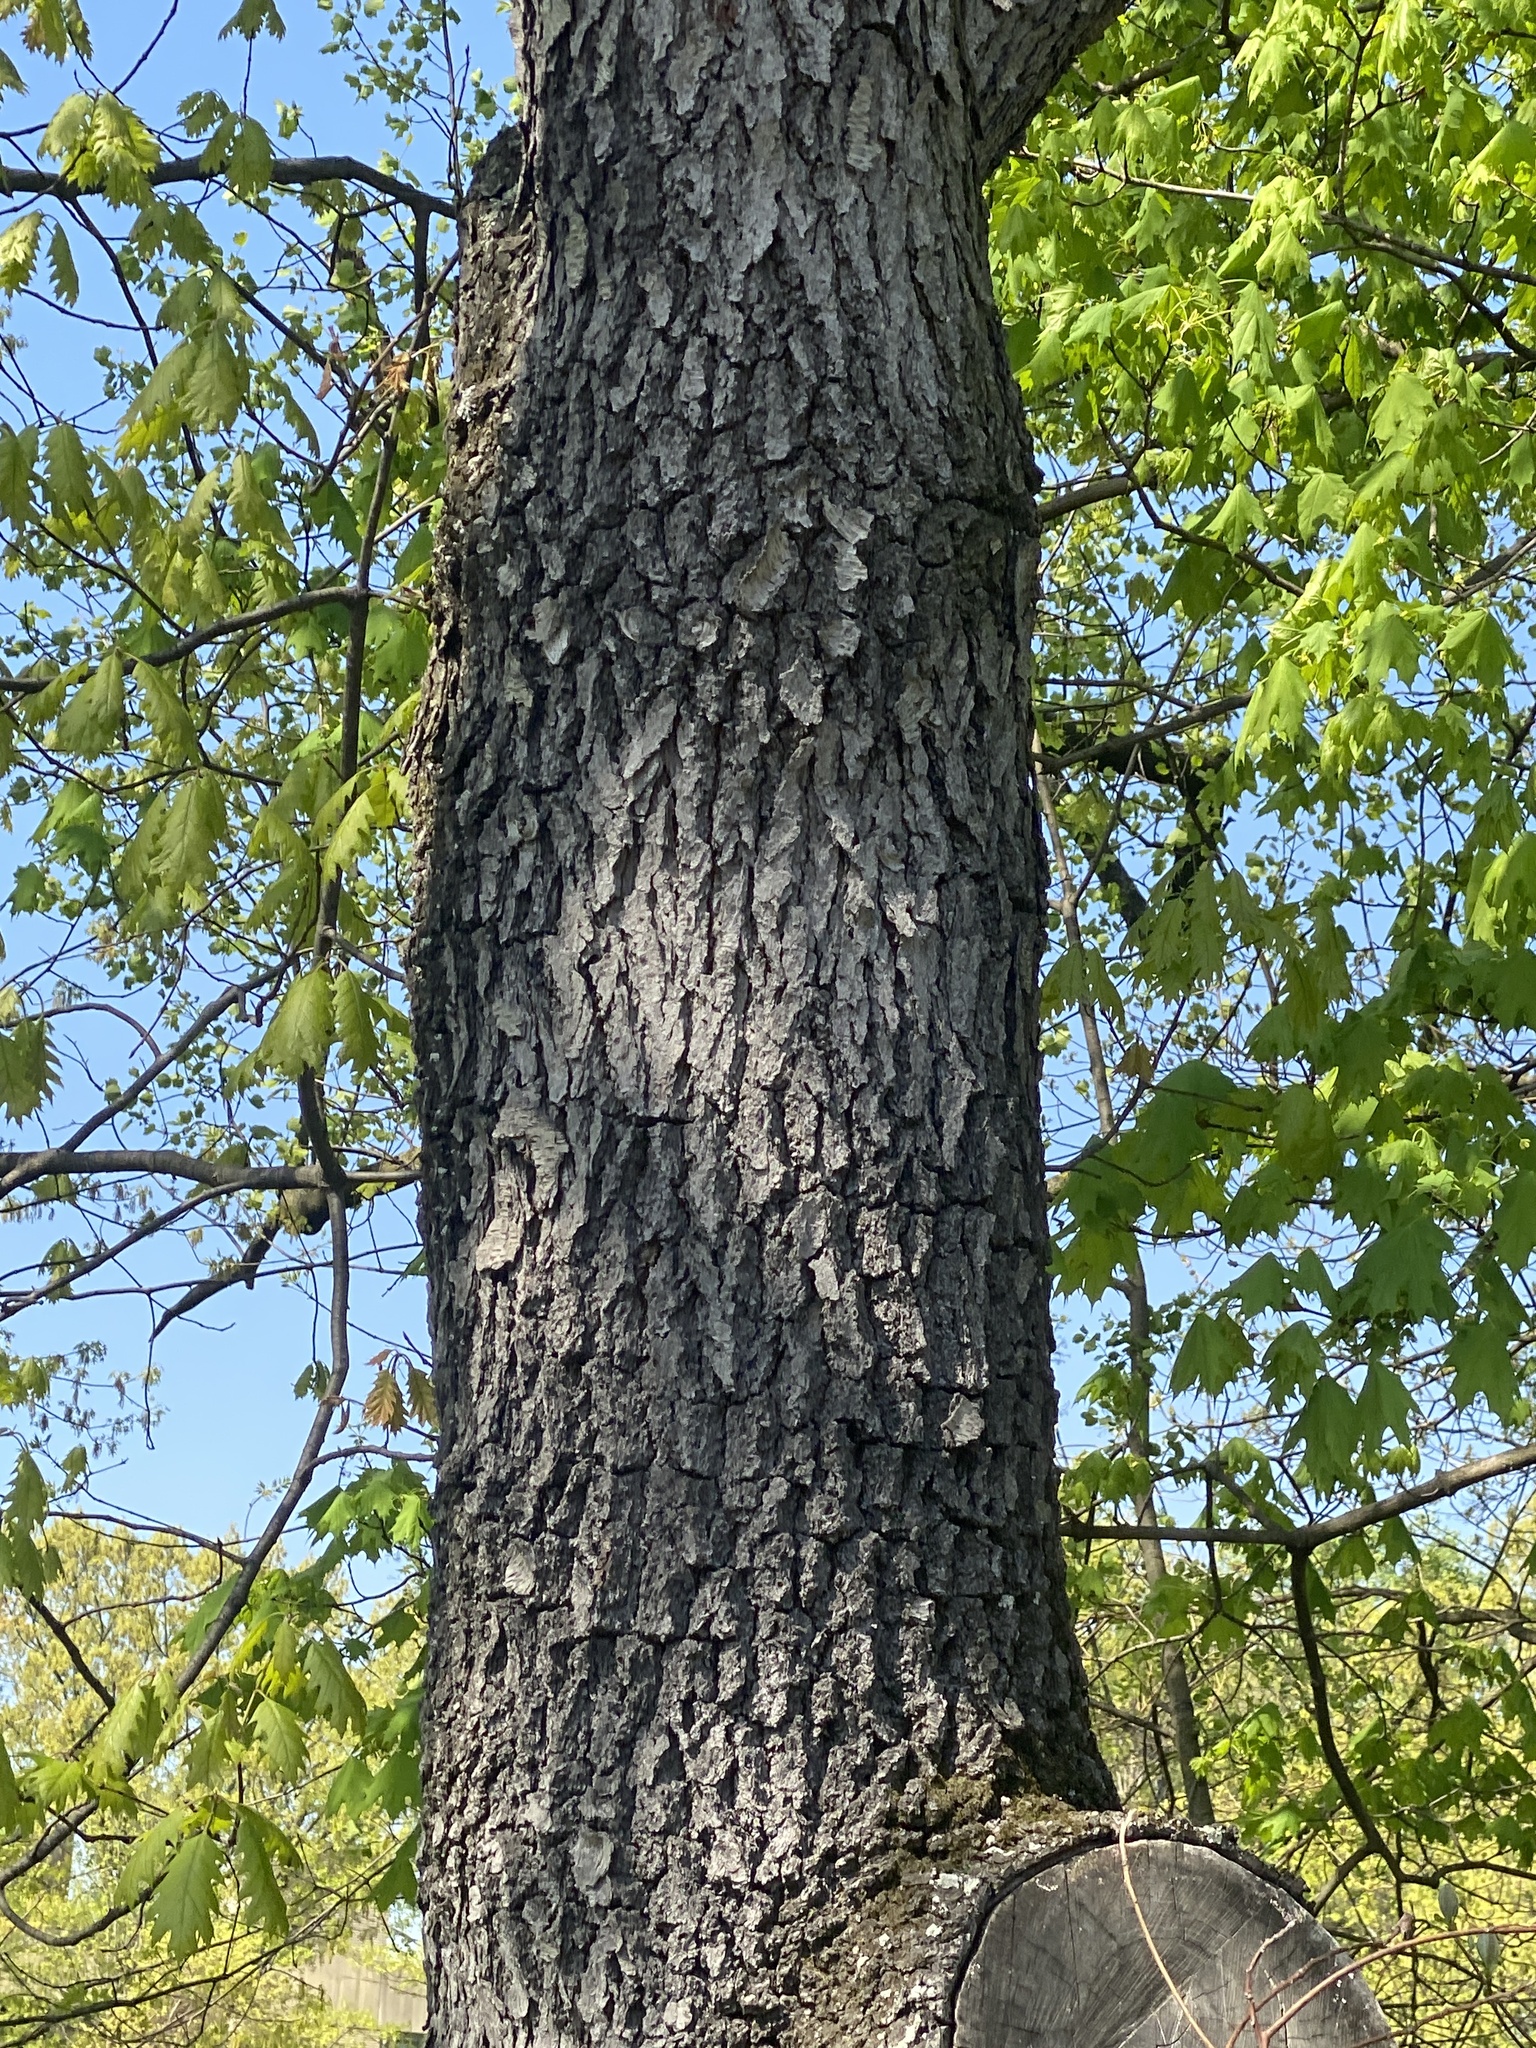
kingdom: Plantae
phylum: Tracheophyta
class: Magnoliopsida
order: Rosales
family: Rosaceae
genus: Prunus
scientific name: Prunus serotina
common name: Black cherry
